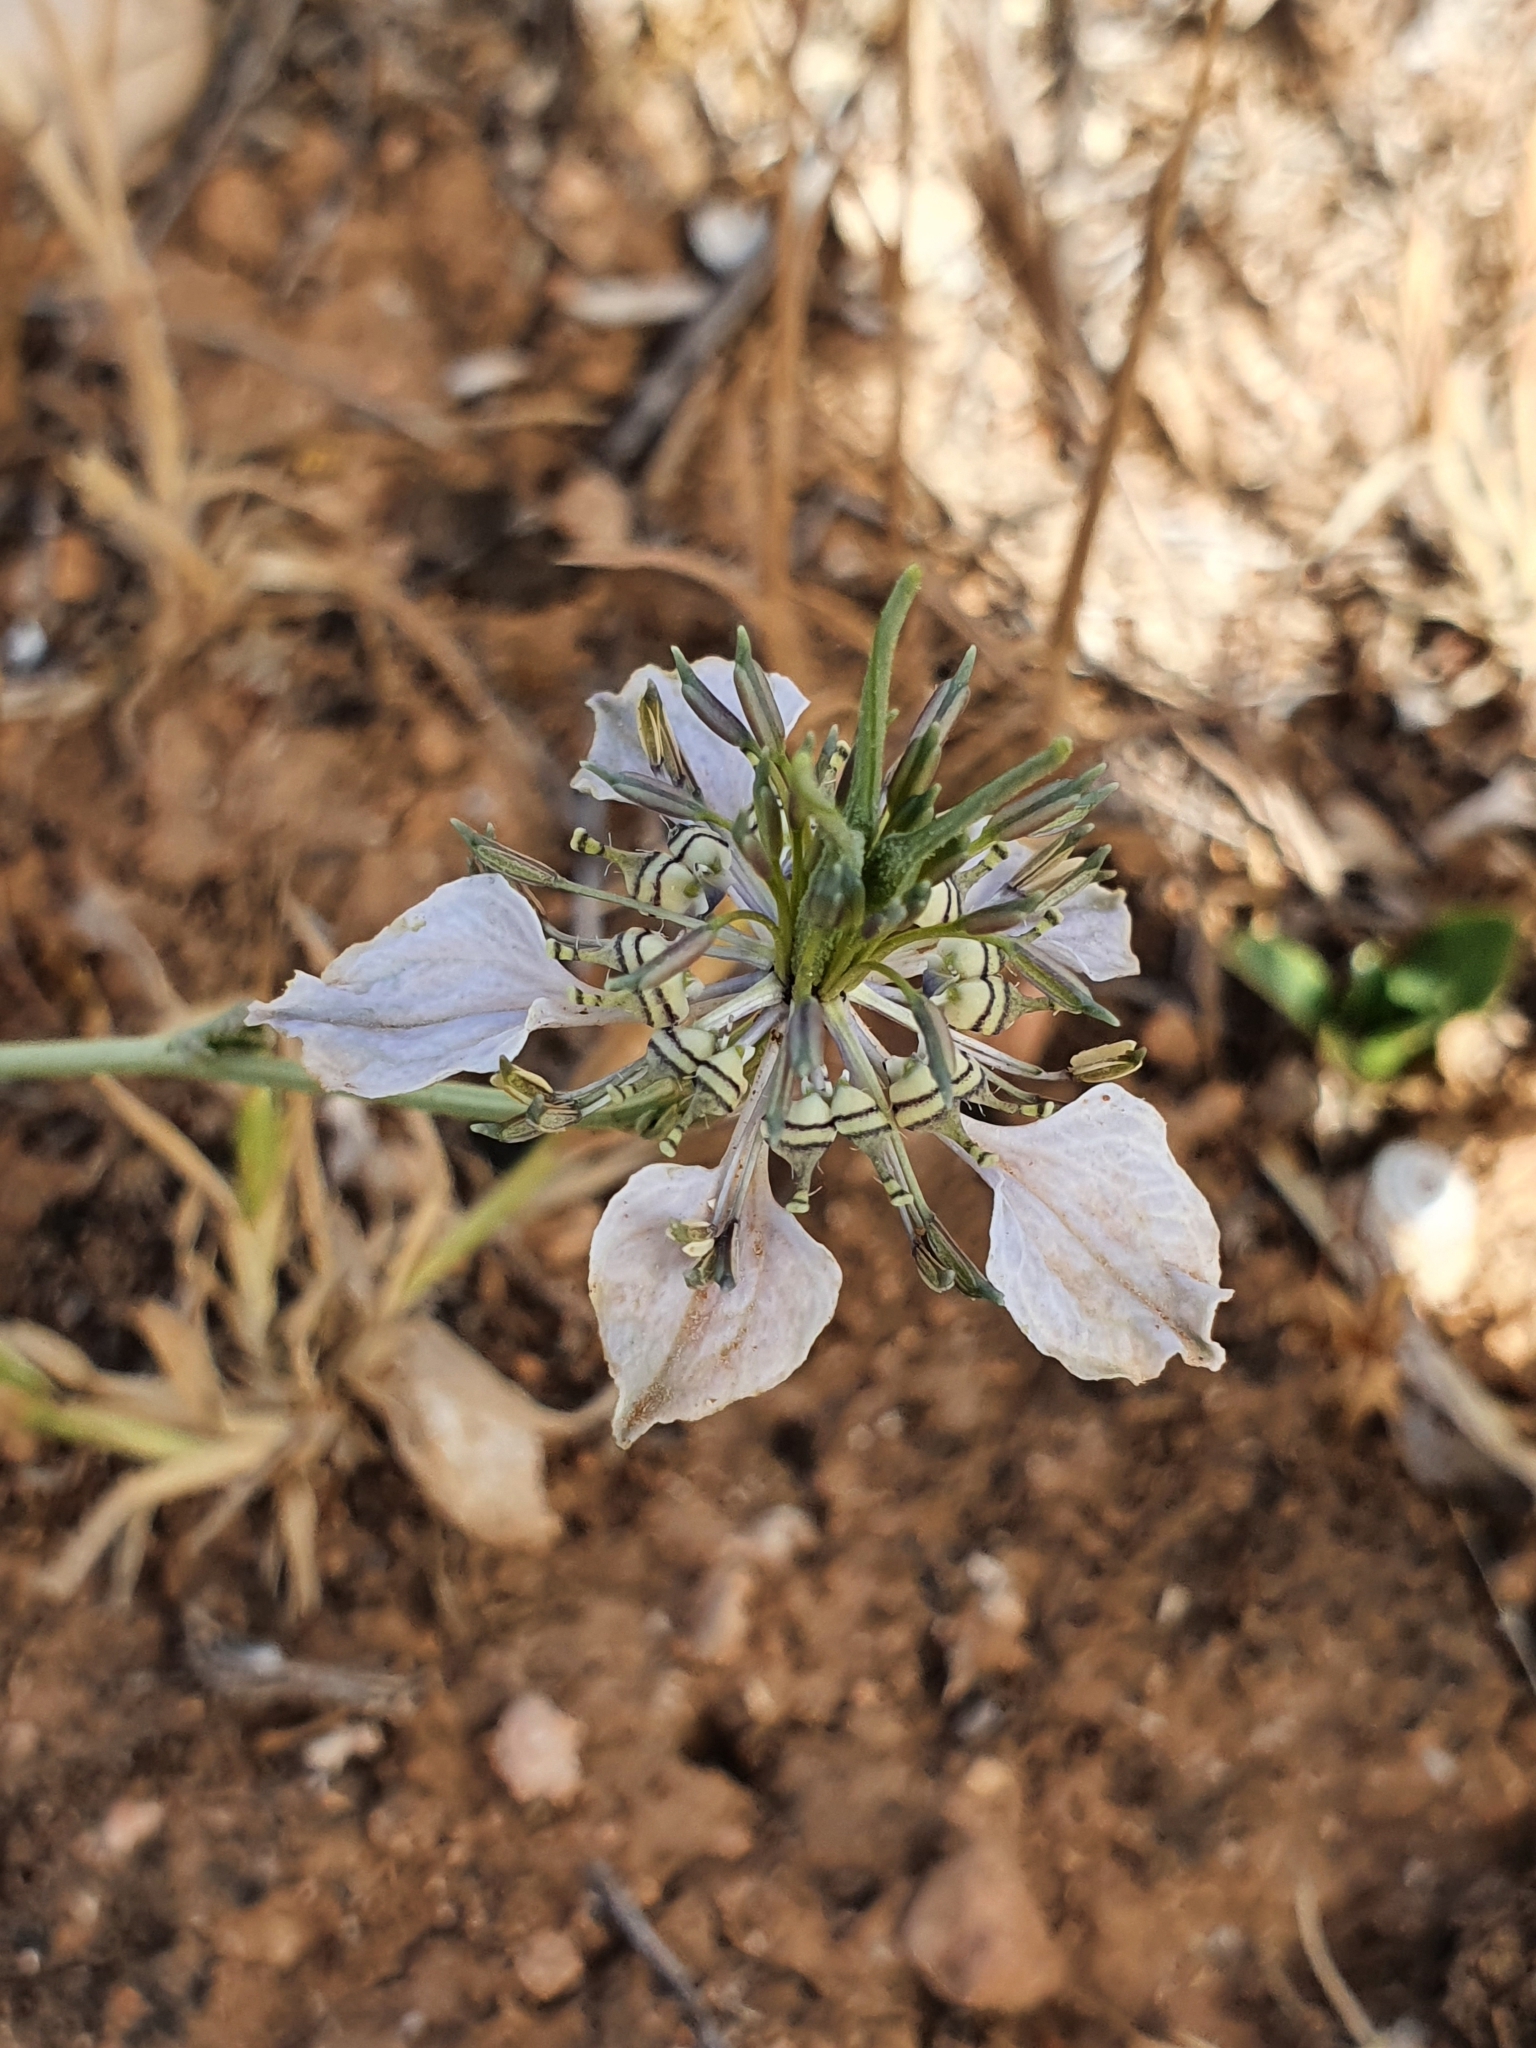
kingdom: Plantae
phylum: Tracheophyta
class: Magnoliopsida
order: Ranunculales
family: Ranunculaceae
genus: Nigella
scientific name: Nigella arvensis
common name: Wild fennel-flower
